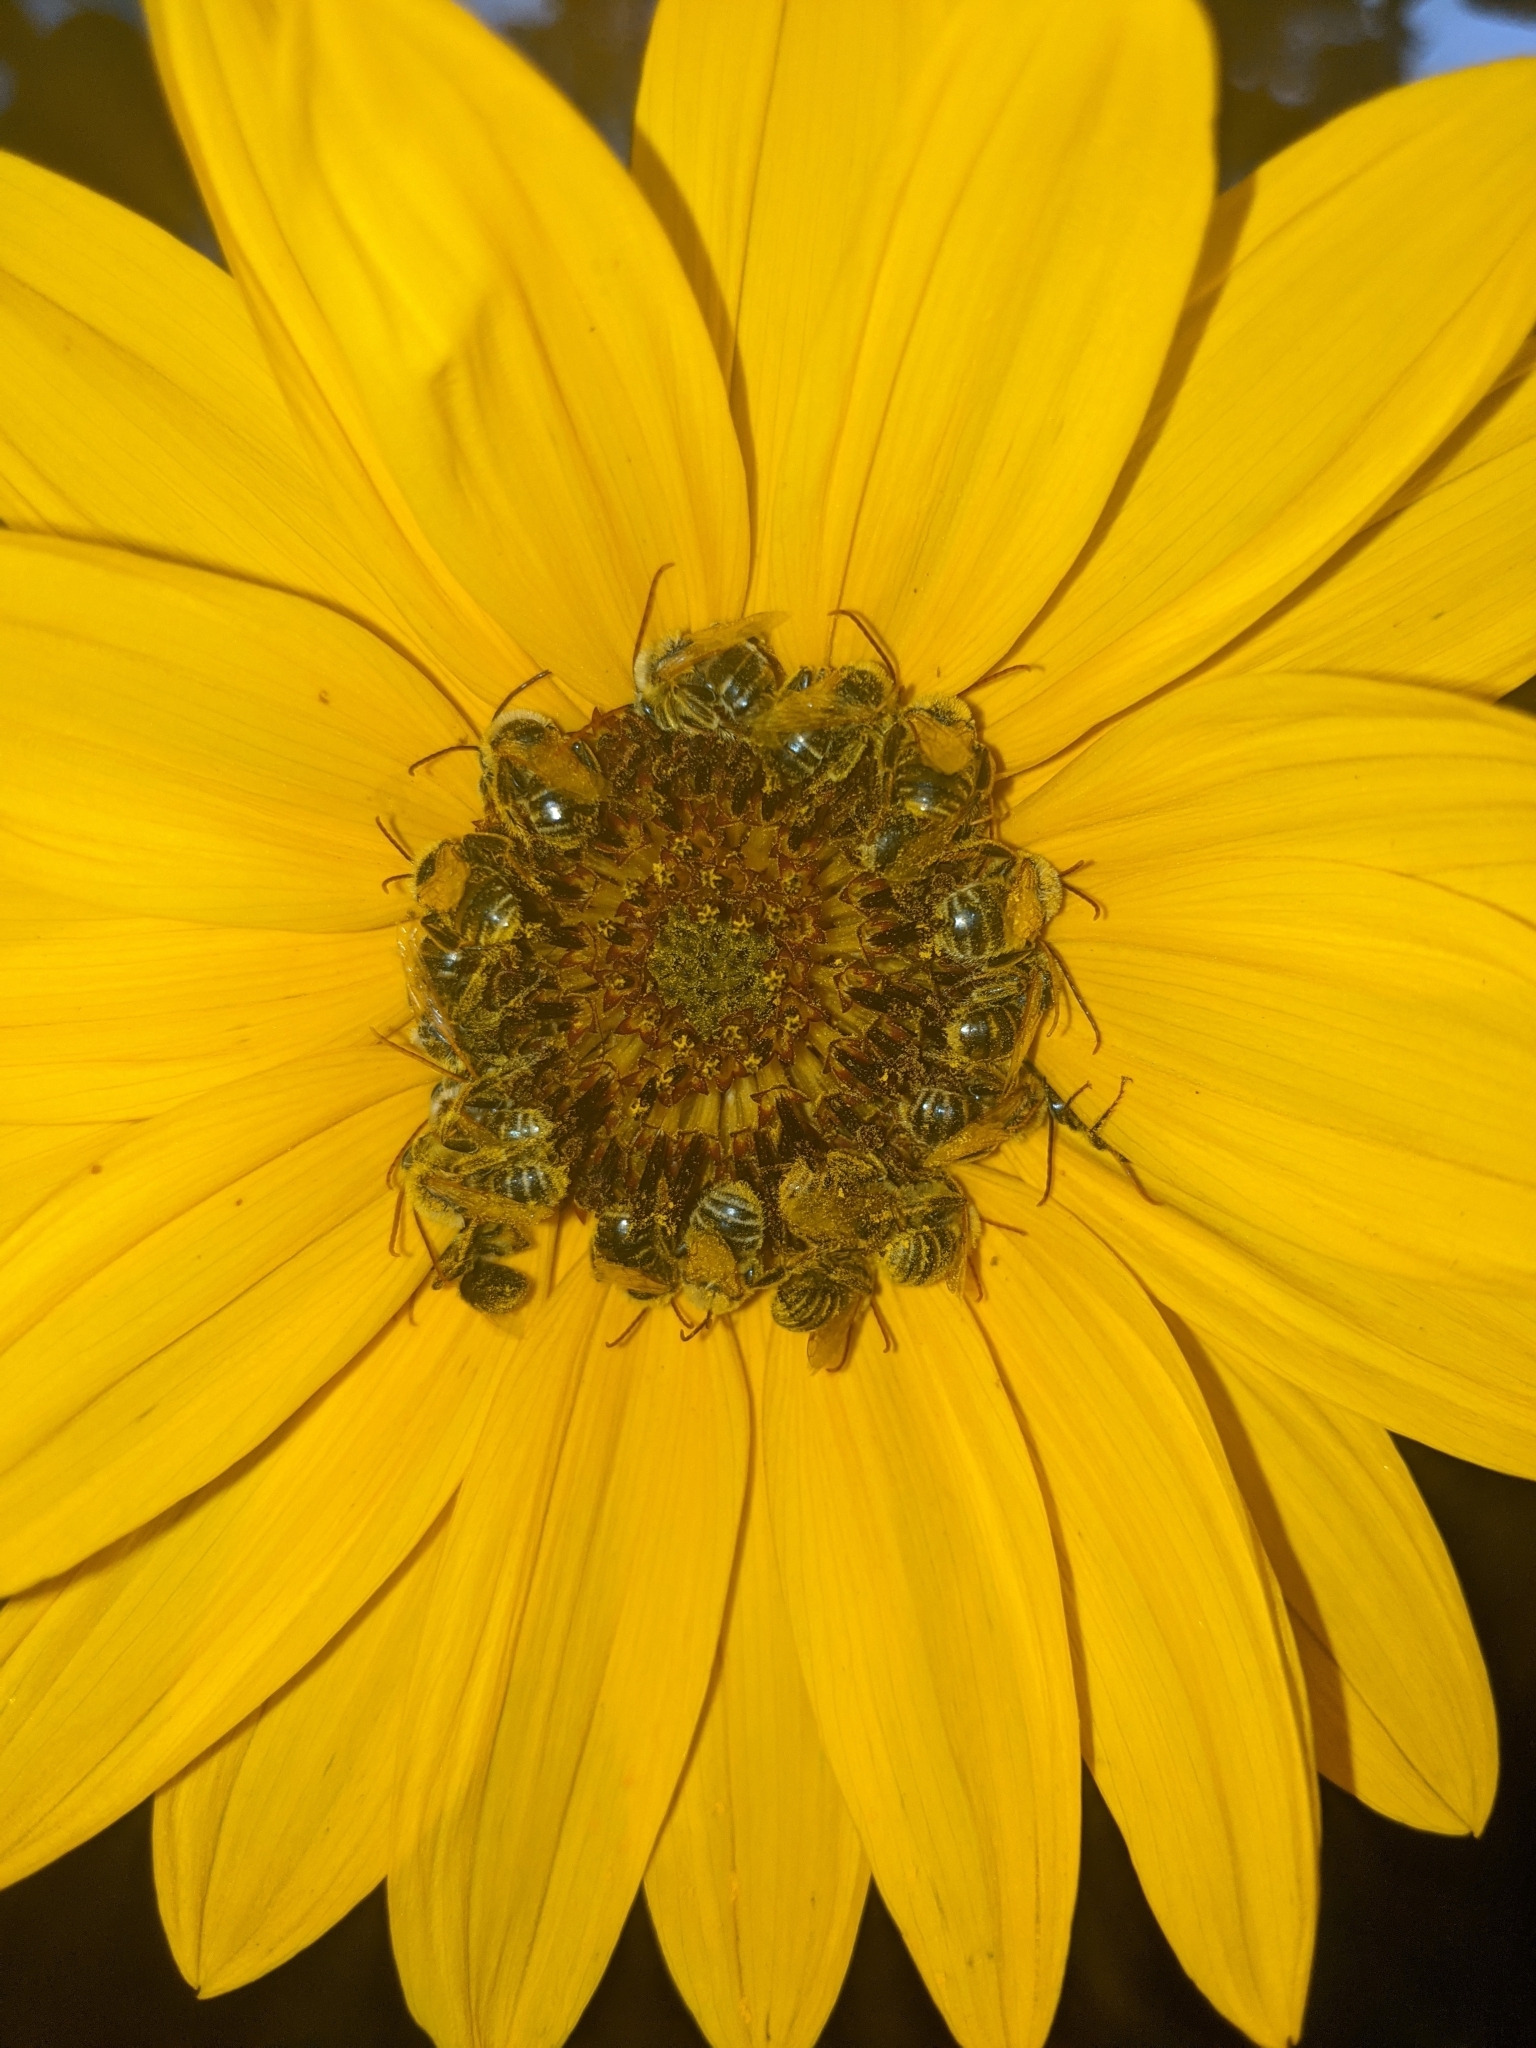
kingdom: Animalia
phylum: Arthropoda
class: Insecta
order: Hymenoptera
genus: Eumelissodes
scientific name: Eumelissodes
